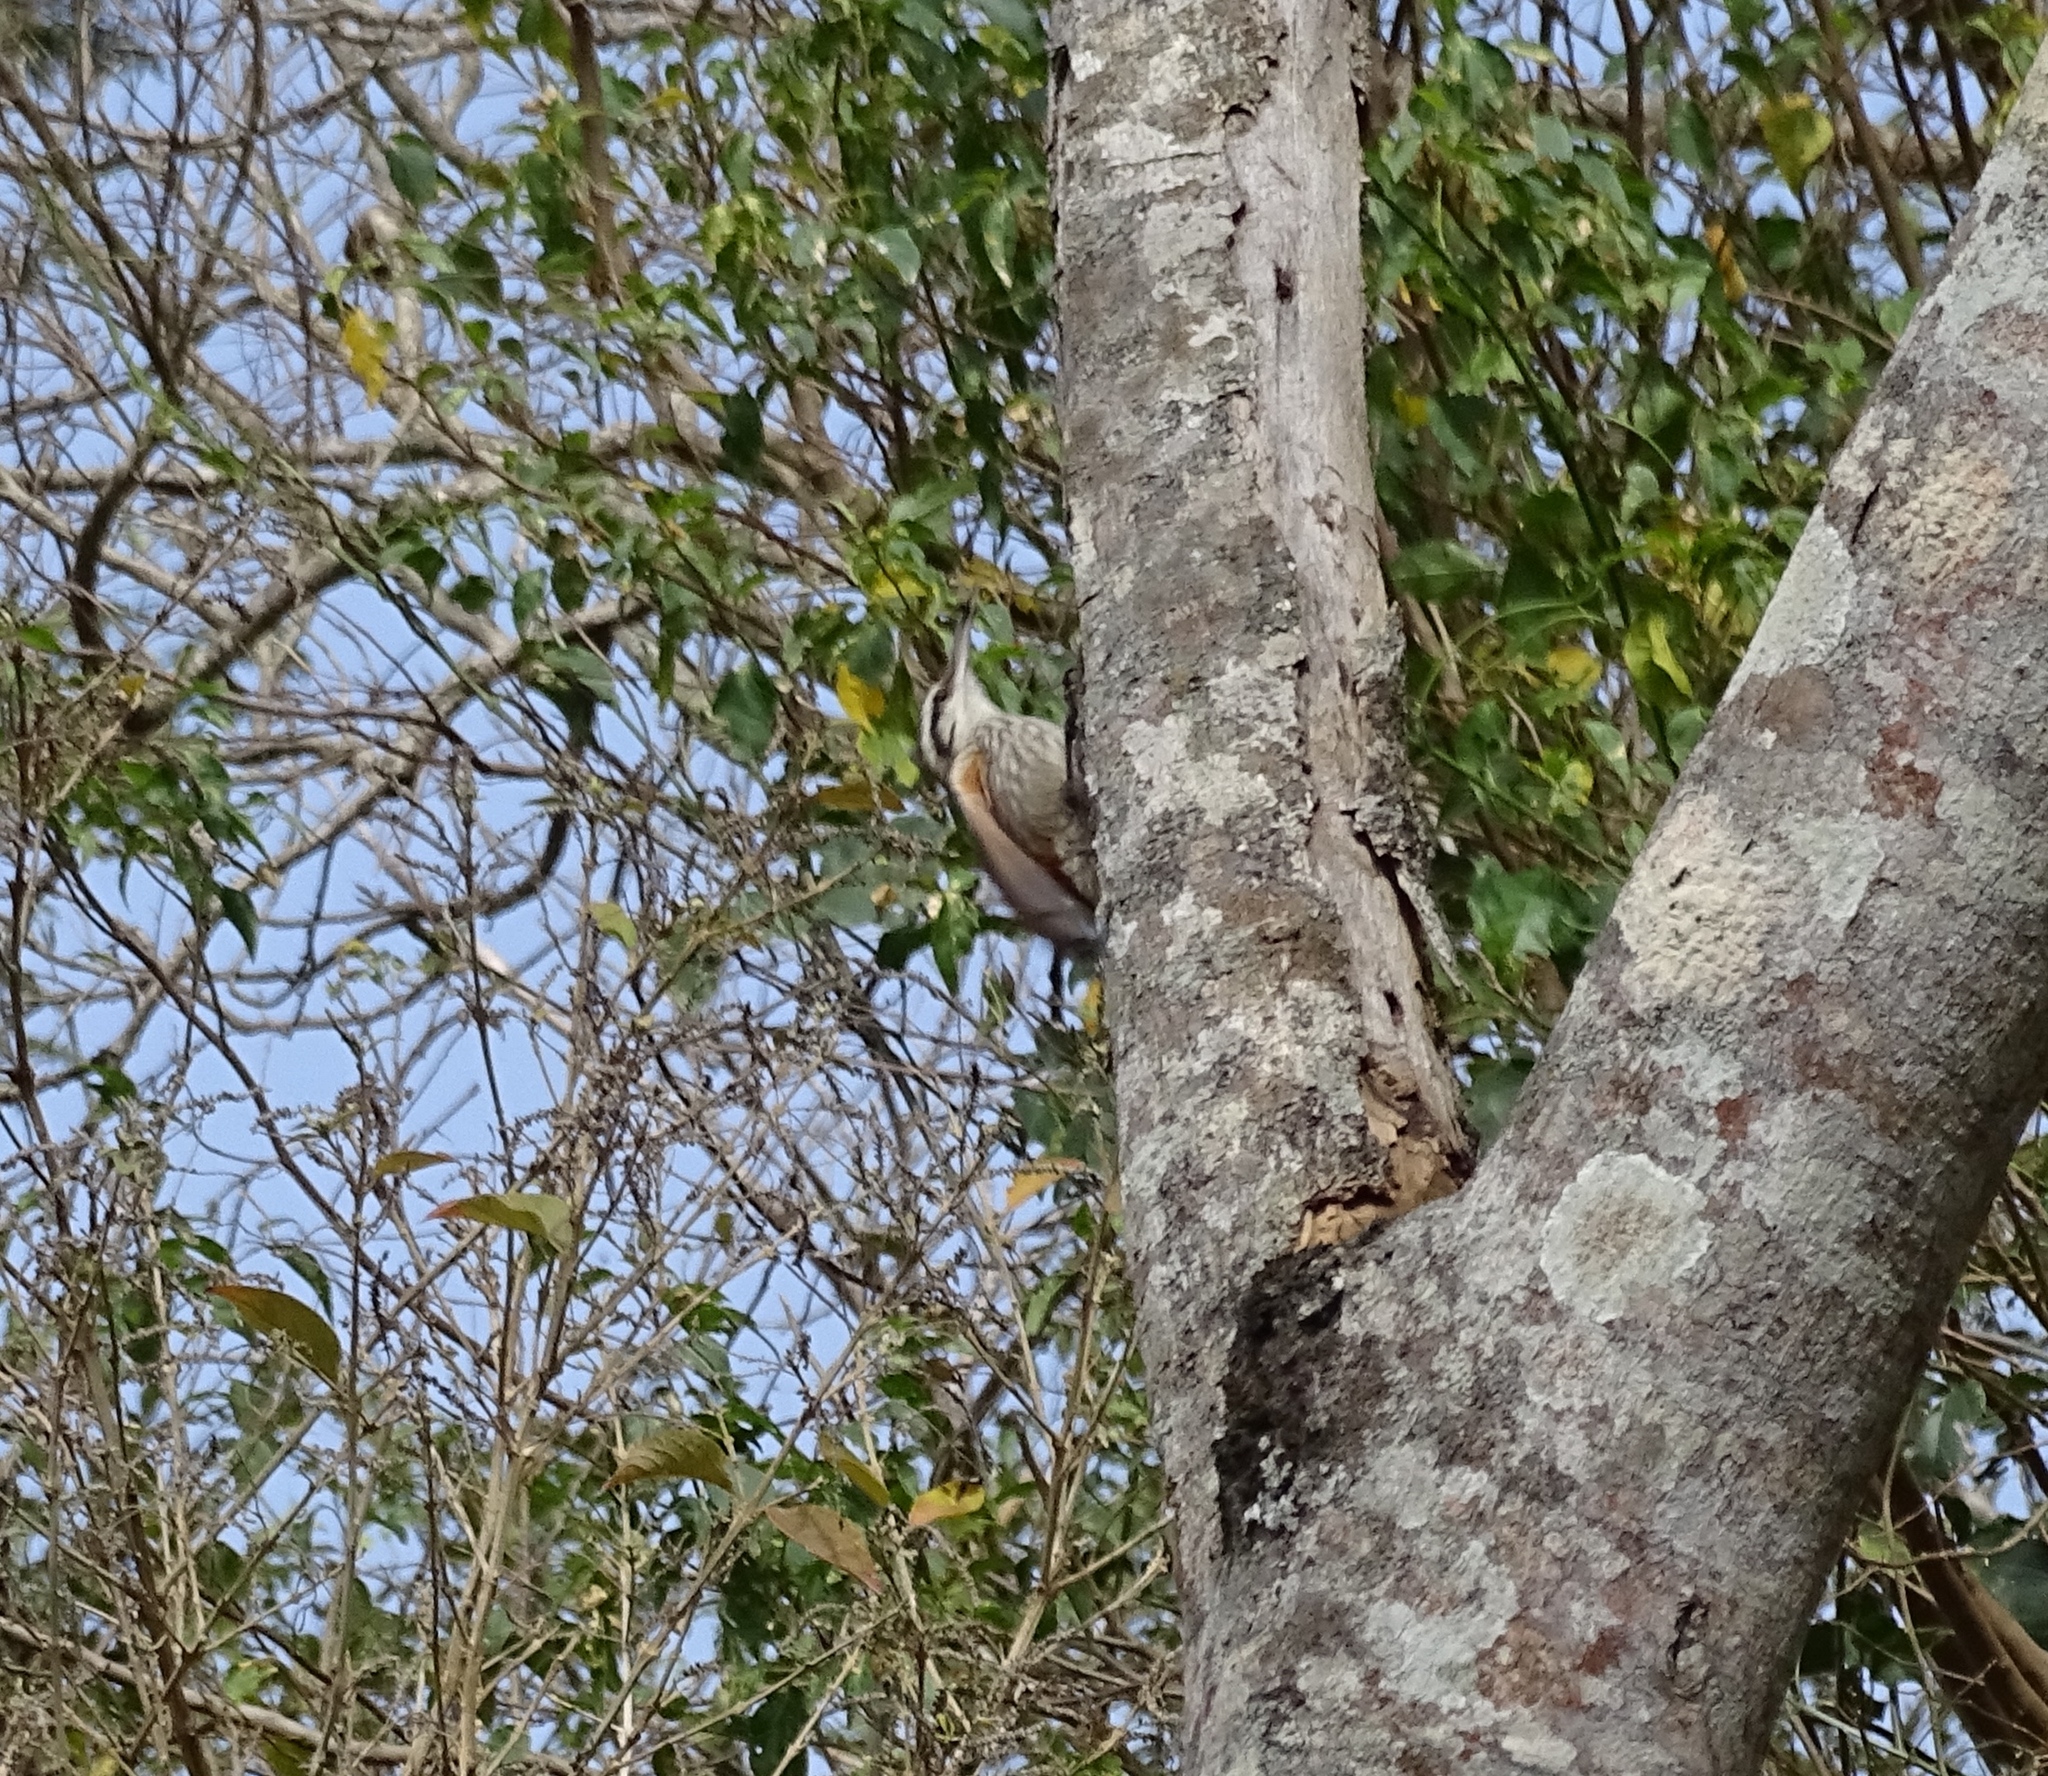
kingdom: Animalia
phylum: Chordata
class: Aves
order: Passeriformes
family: Furnariidae
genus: Lepidocolaptes
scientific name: Lepidocolaptes angustirostris
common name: Narrow-billed woodcreeper
